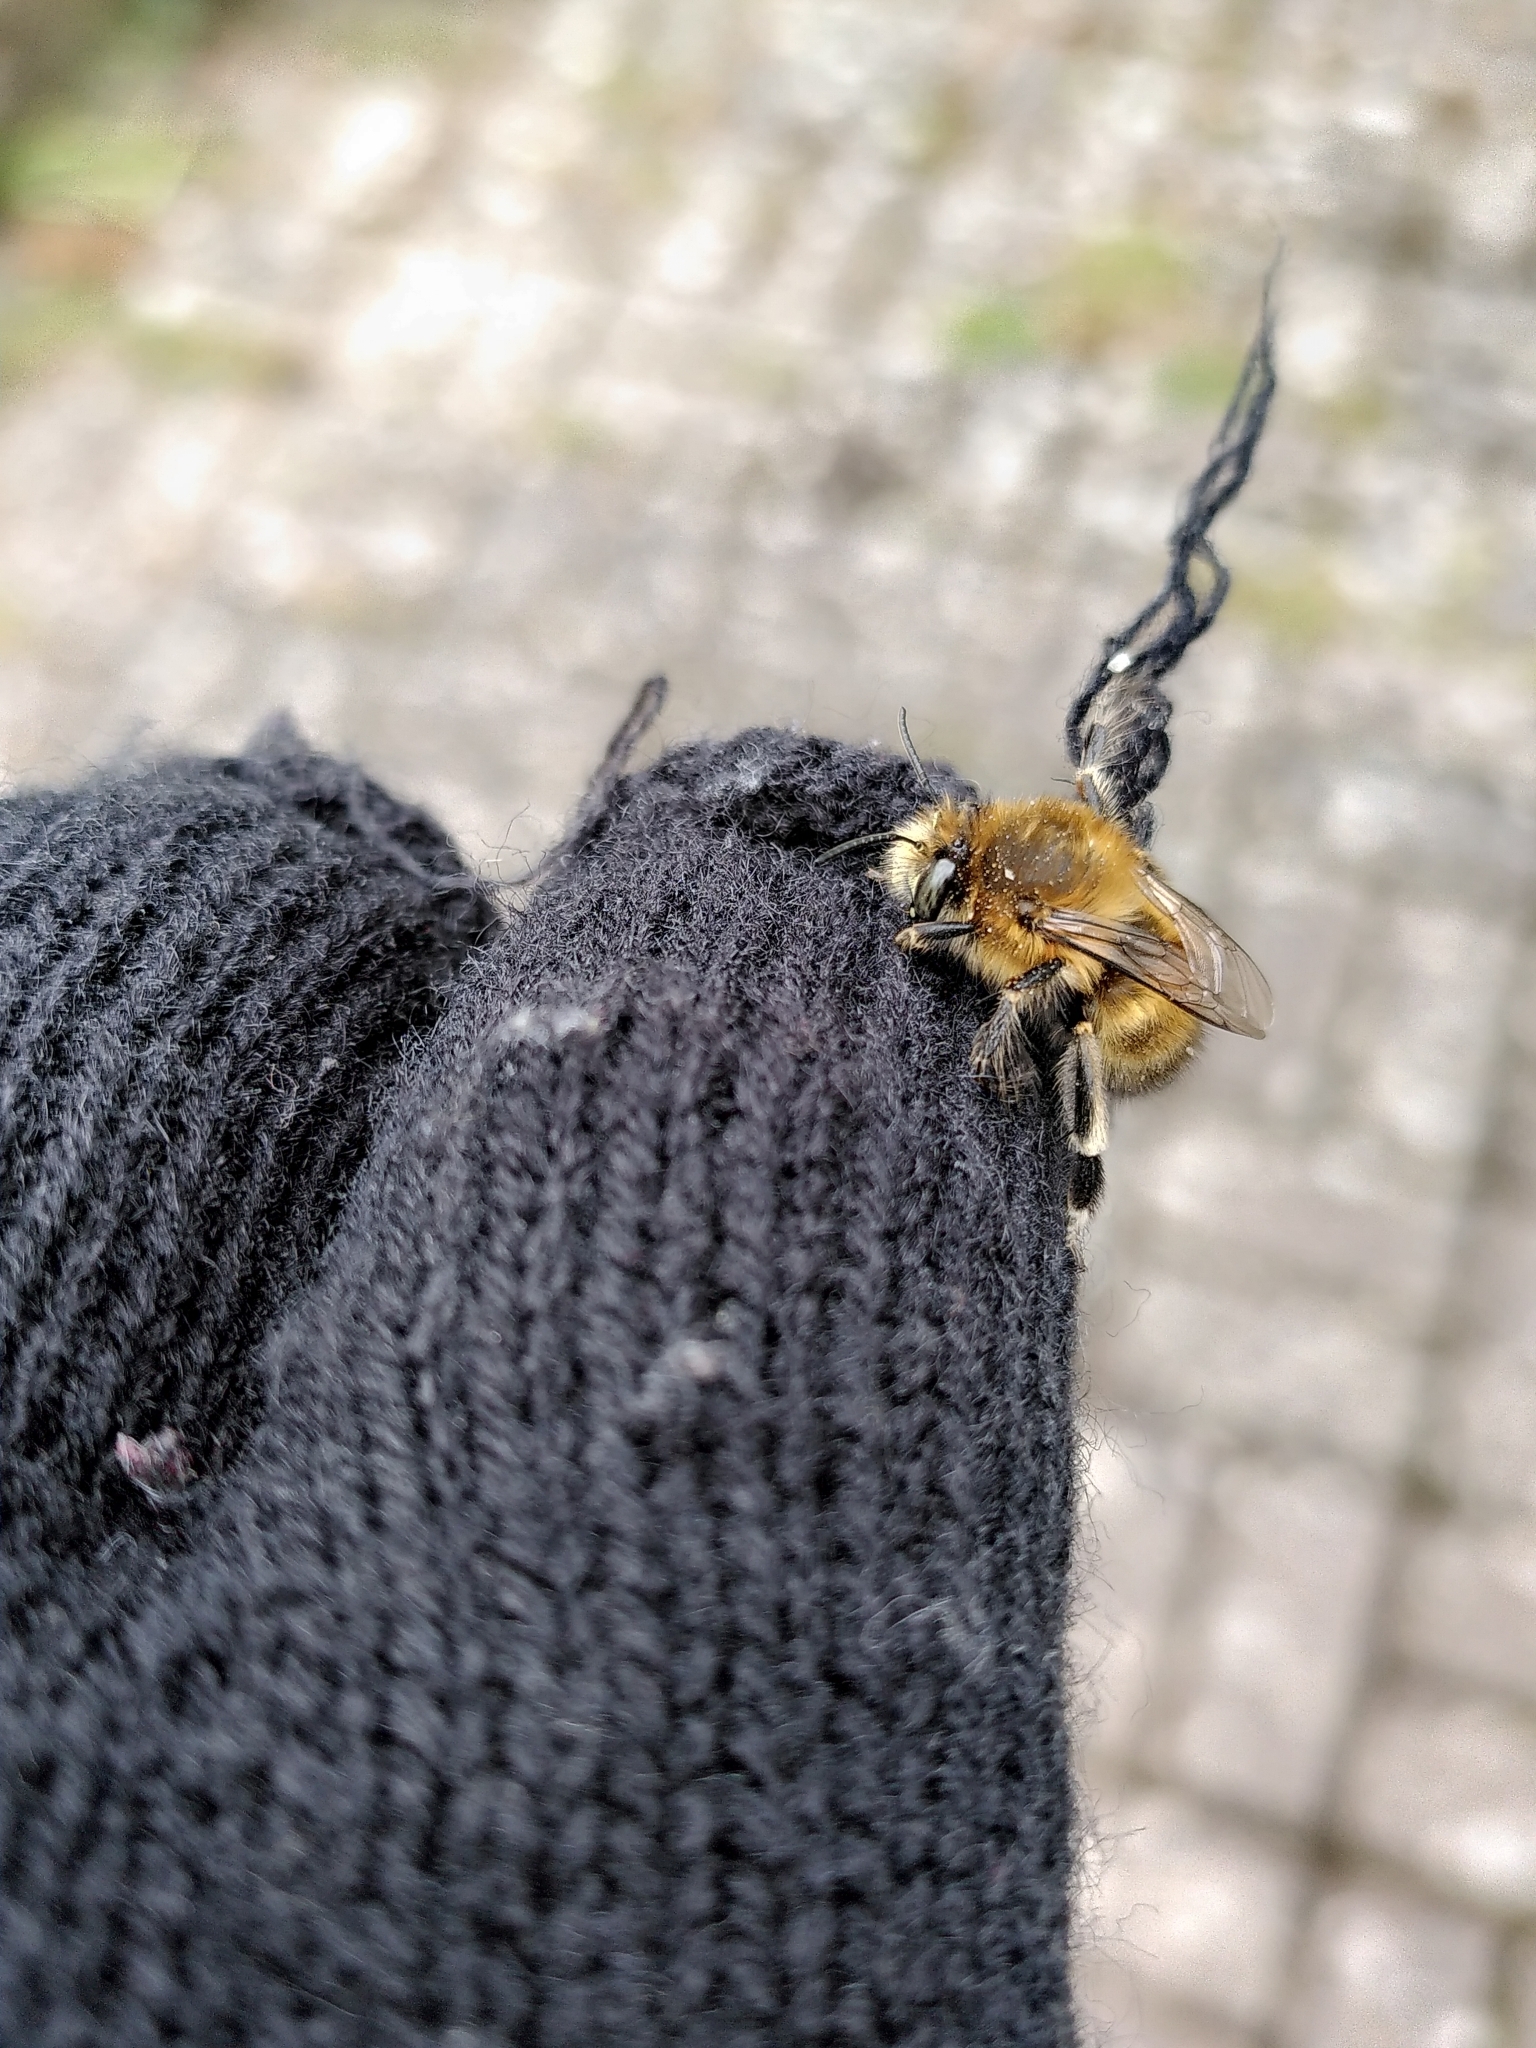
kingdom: Animalia
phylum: Arthropoda
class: Insecta
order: Hymenoptera
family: Apidae
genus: Anthophora
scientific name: Anthophora plumipes
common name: Hairy-footed flower bee
